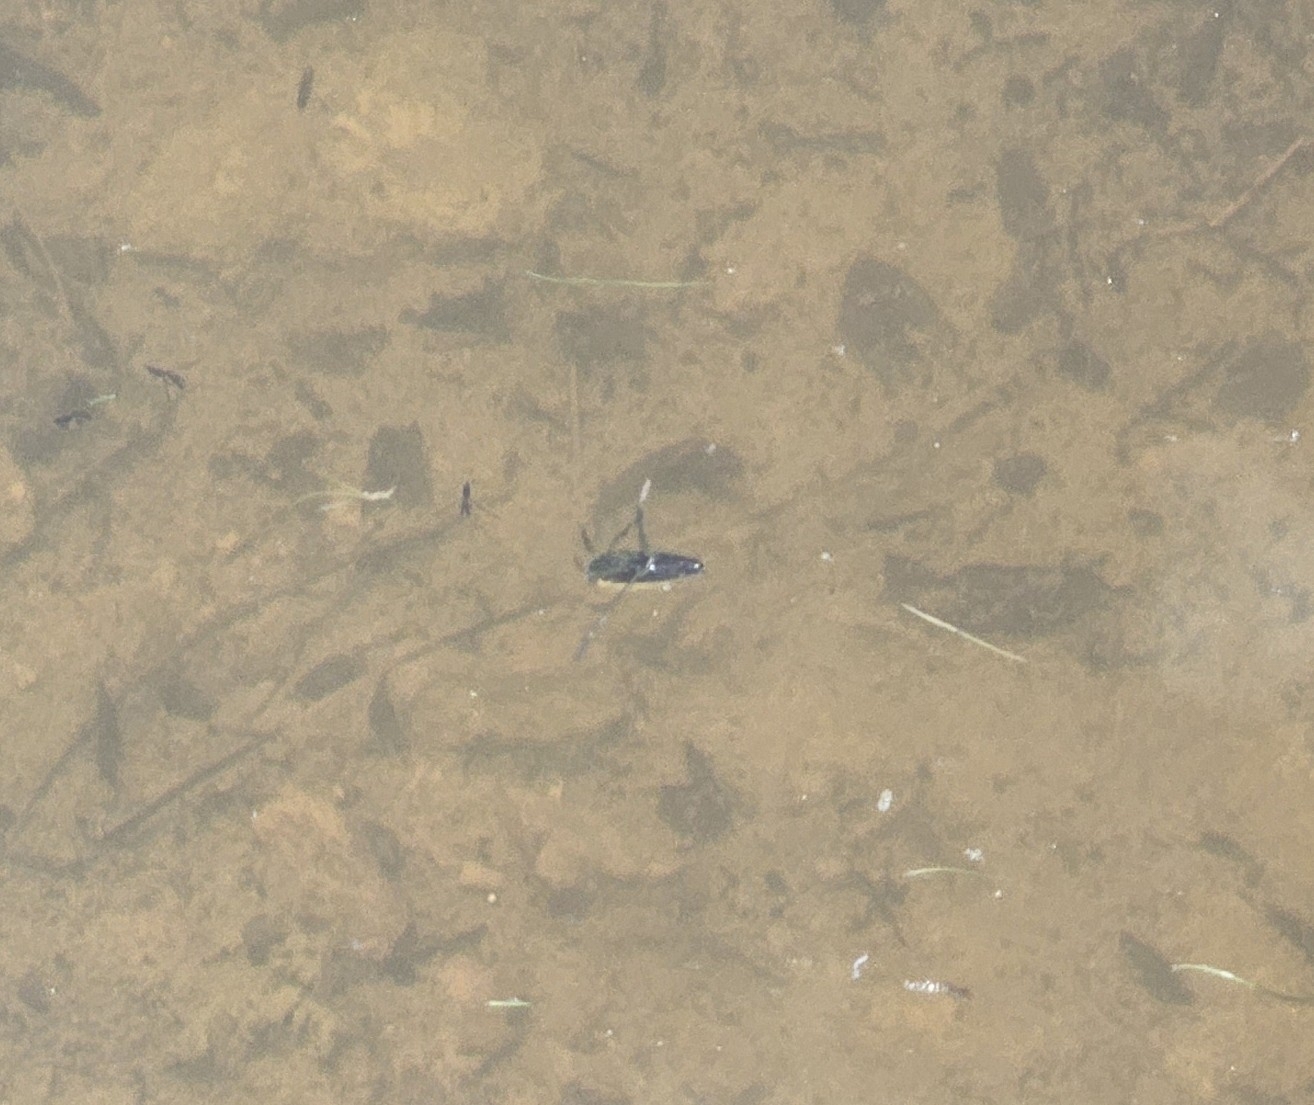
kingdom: Animalia
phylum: Arthropoda
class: Insecta
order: Hemiptera
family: Notonectidae
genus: Notonecta
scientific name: Notonecta
